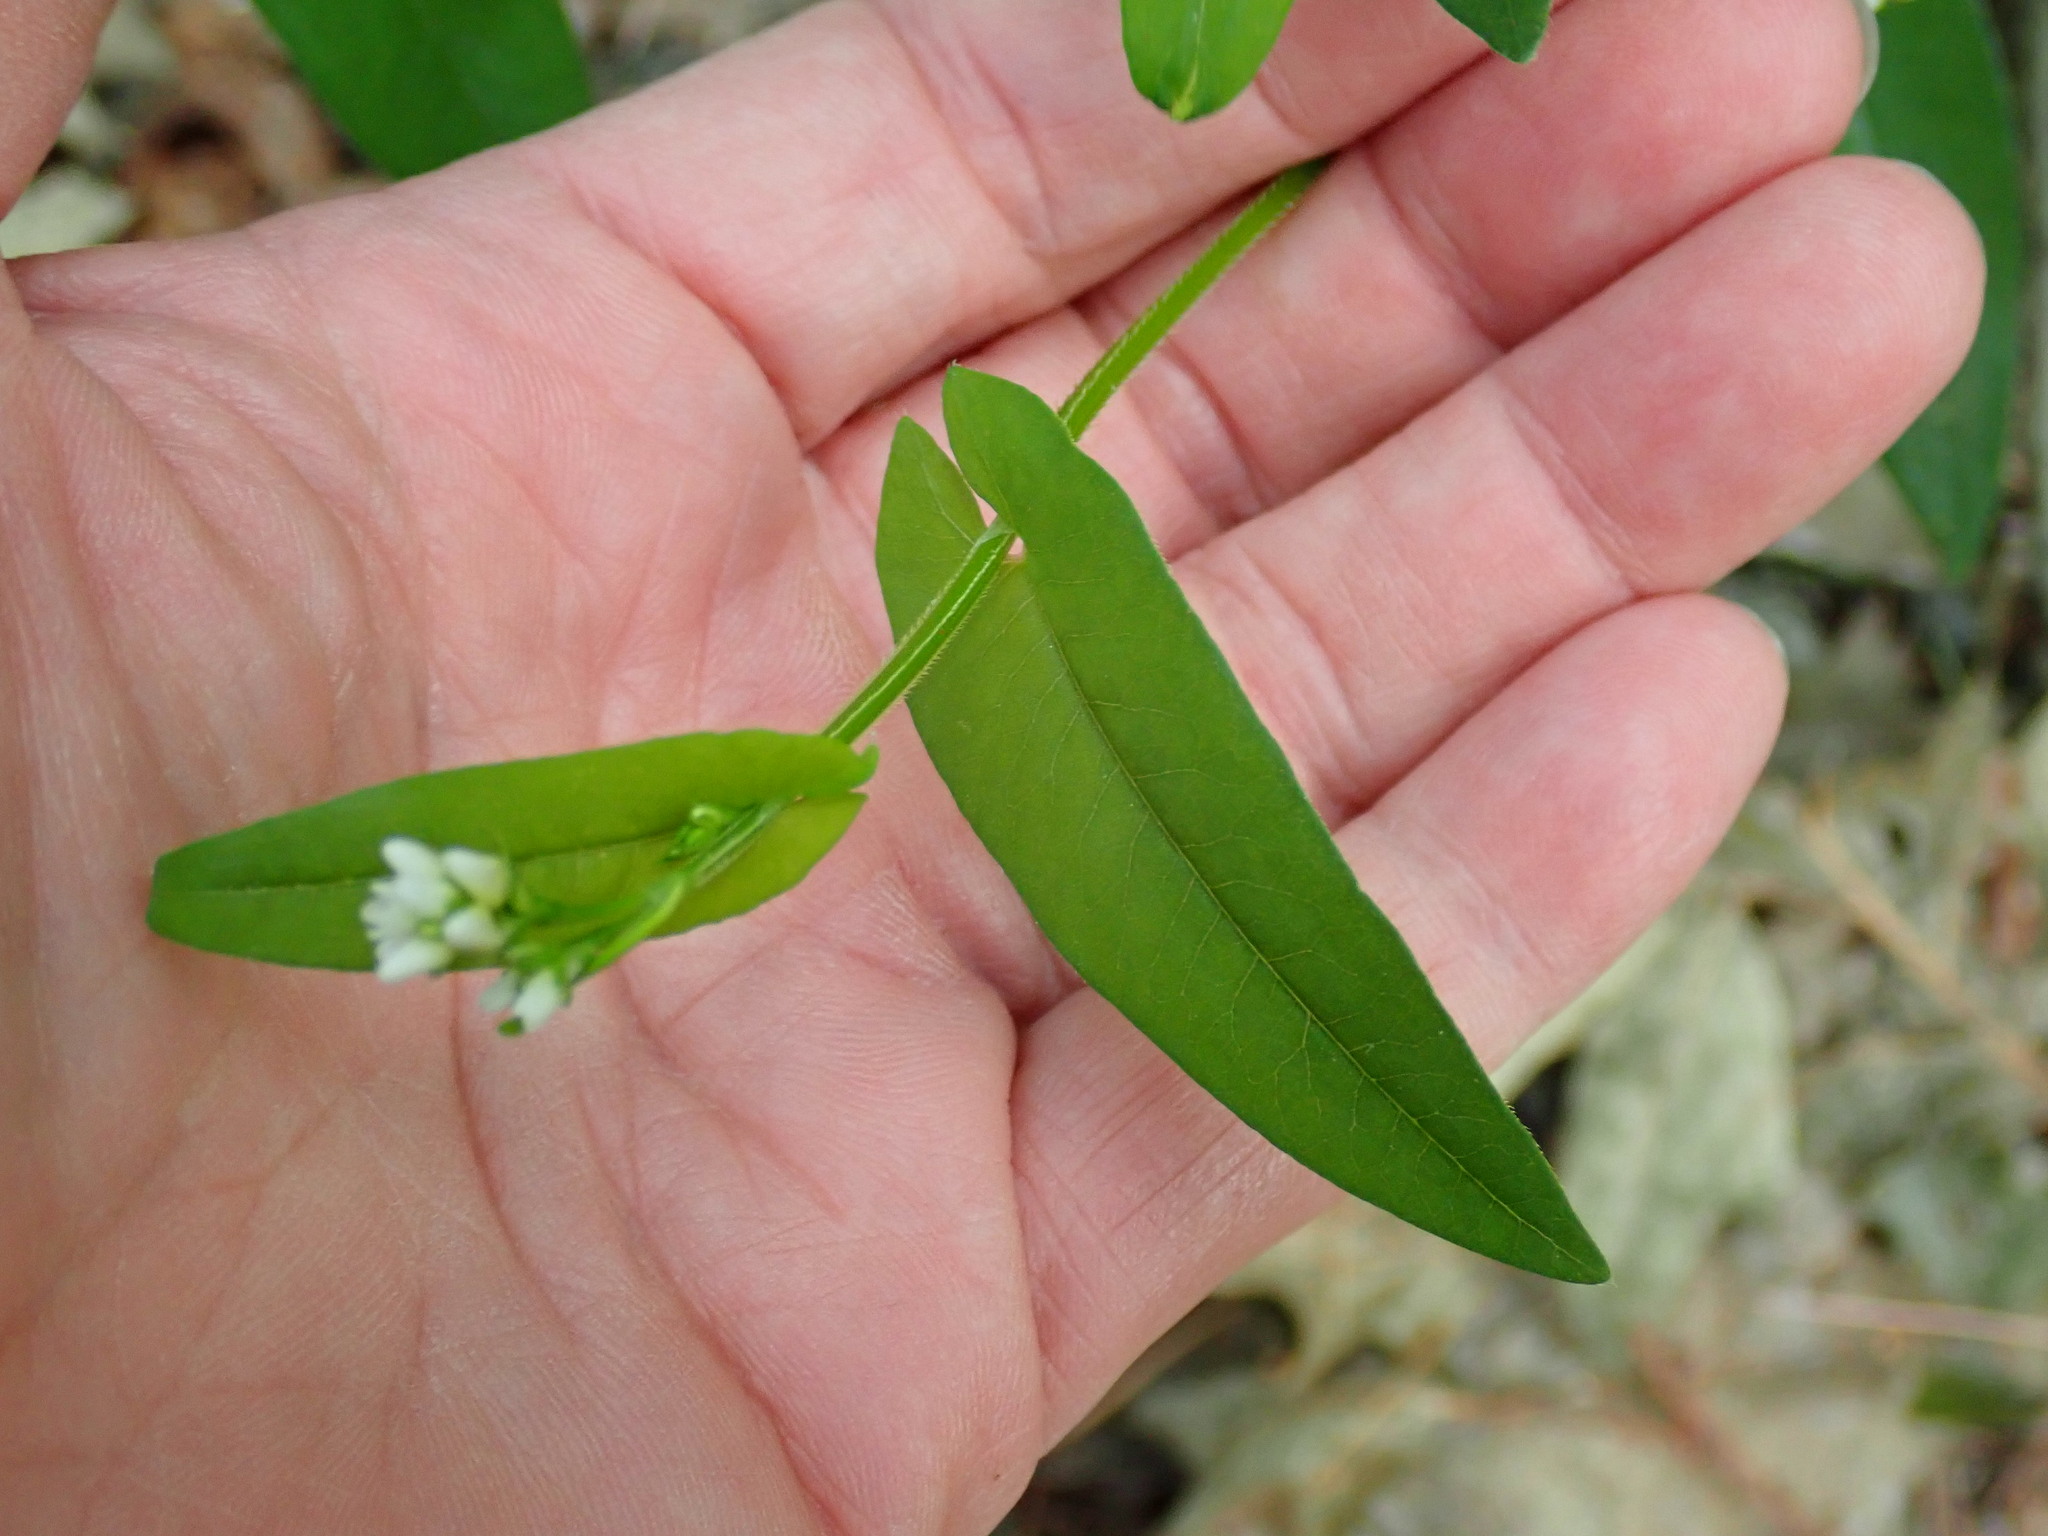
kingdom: Plantae
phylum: Tracheophyta
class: Magnoliopsida
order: Caryophyllales
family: Polygonaceae
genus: Persicaria
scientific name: Persicaria sagittata
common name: American tearthumb
